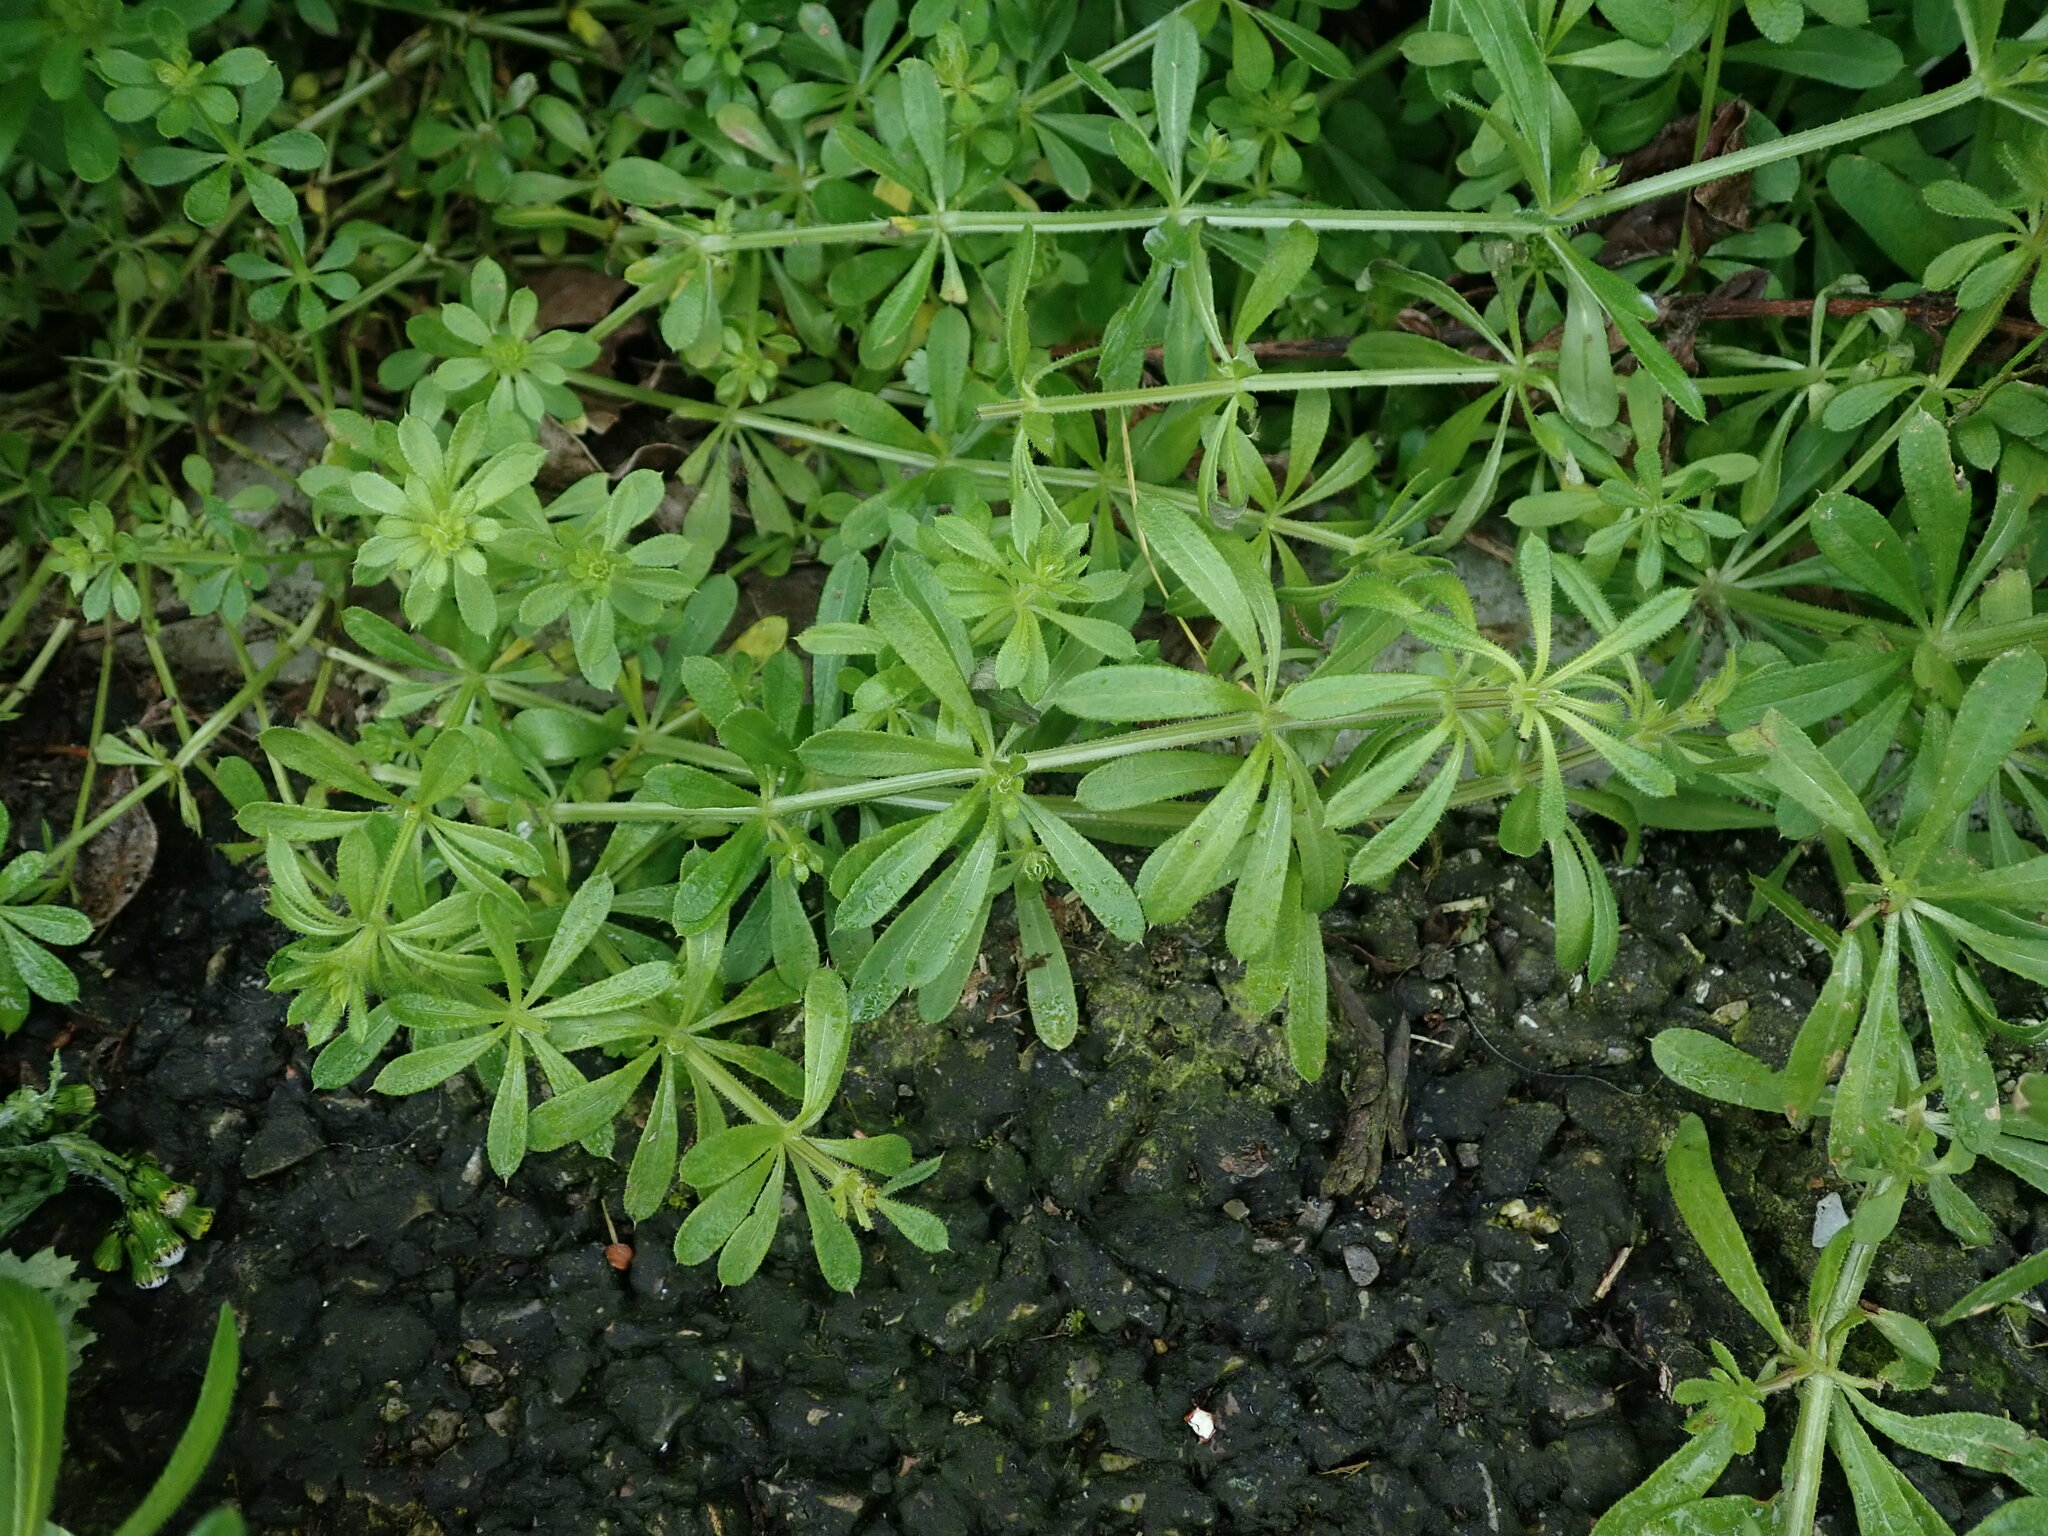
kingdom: Plantae
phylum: Tracheophyta
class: Magnoliopsida
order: Gentianales
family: Rubiaceae
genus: Galium
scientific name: Galium aparine
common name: Cleavers
